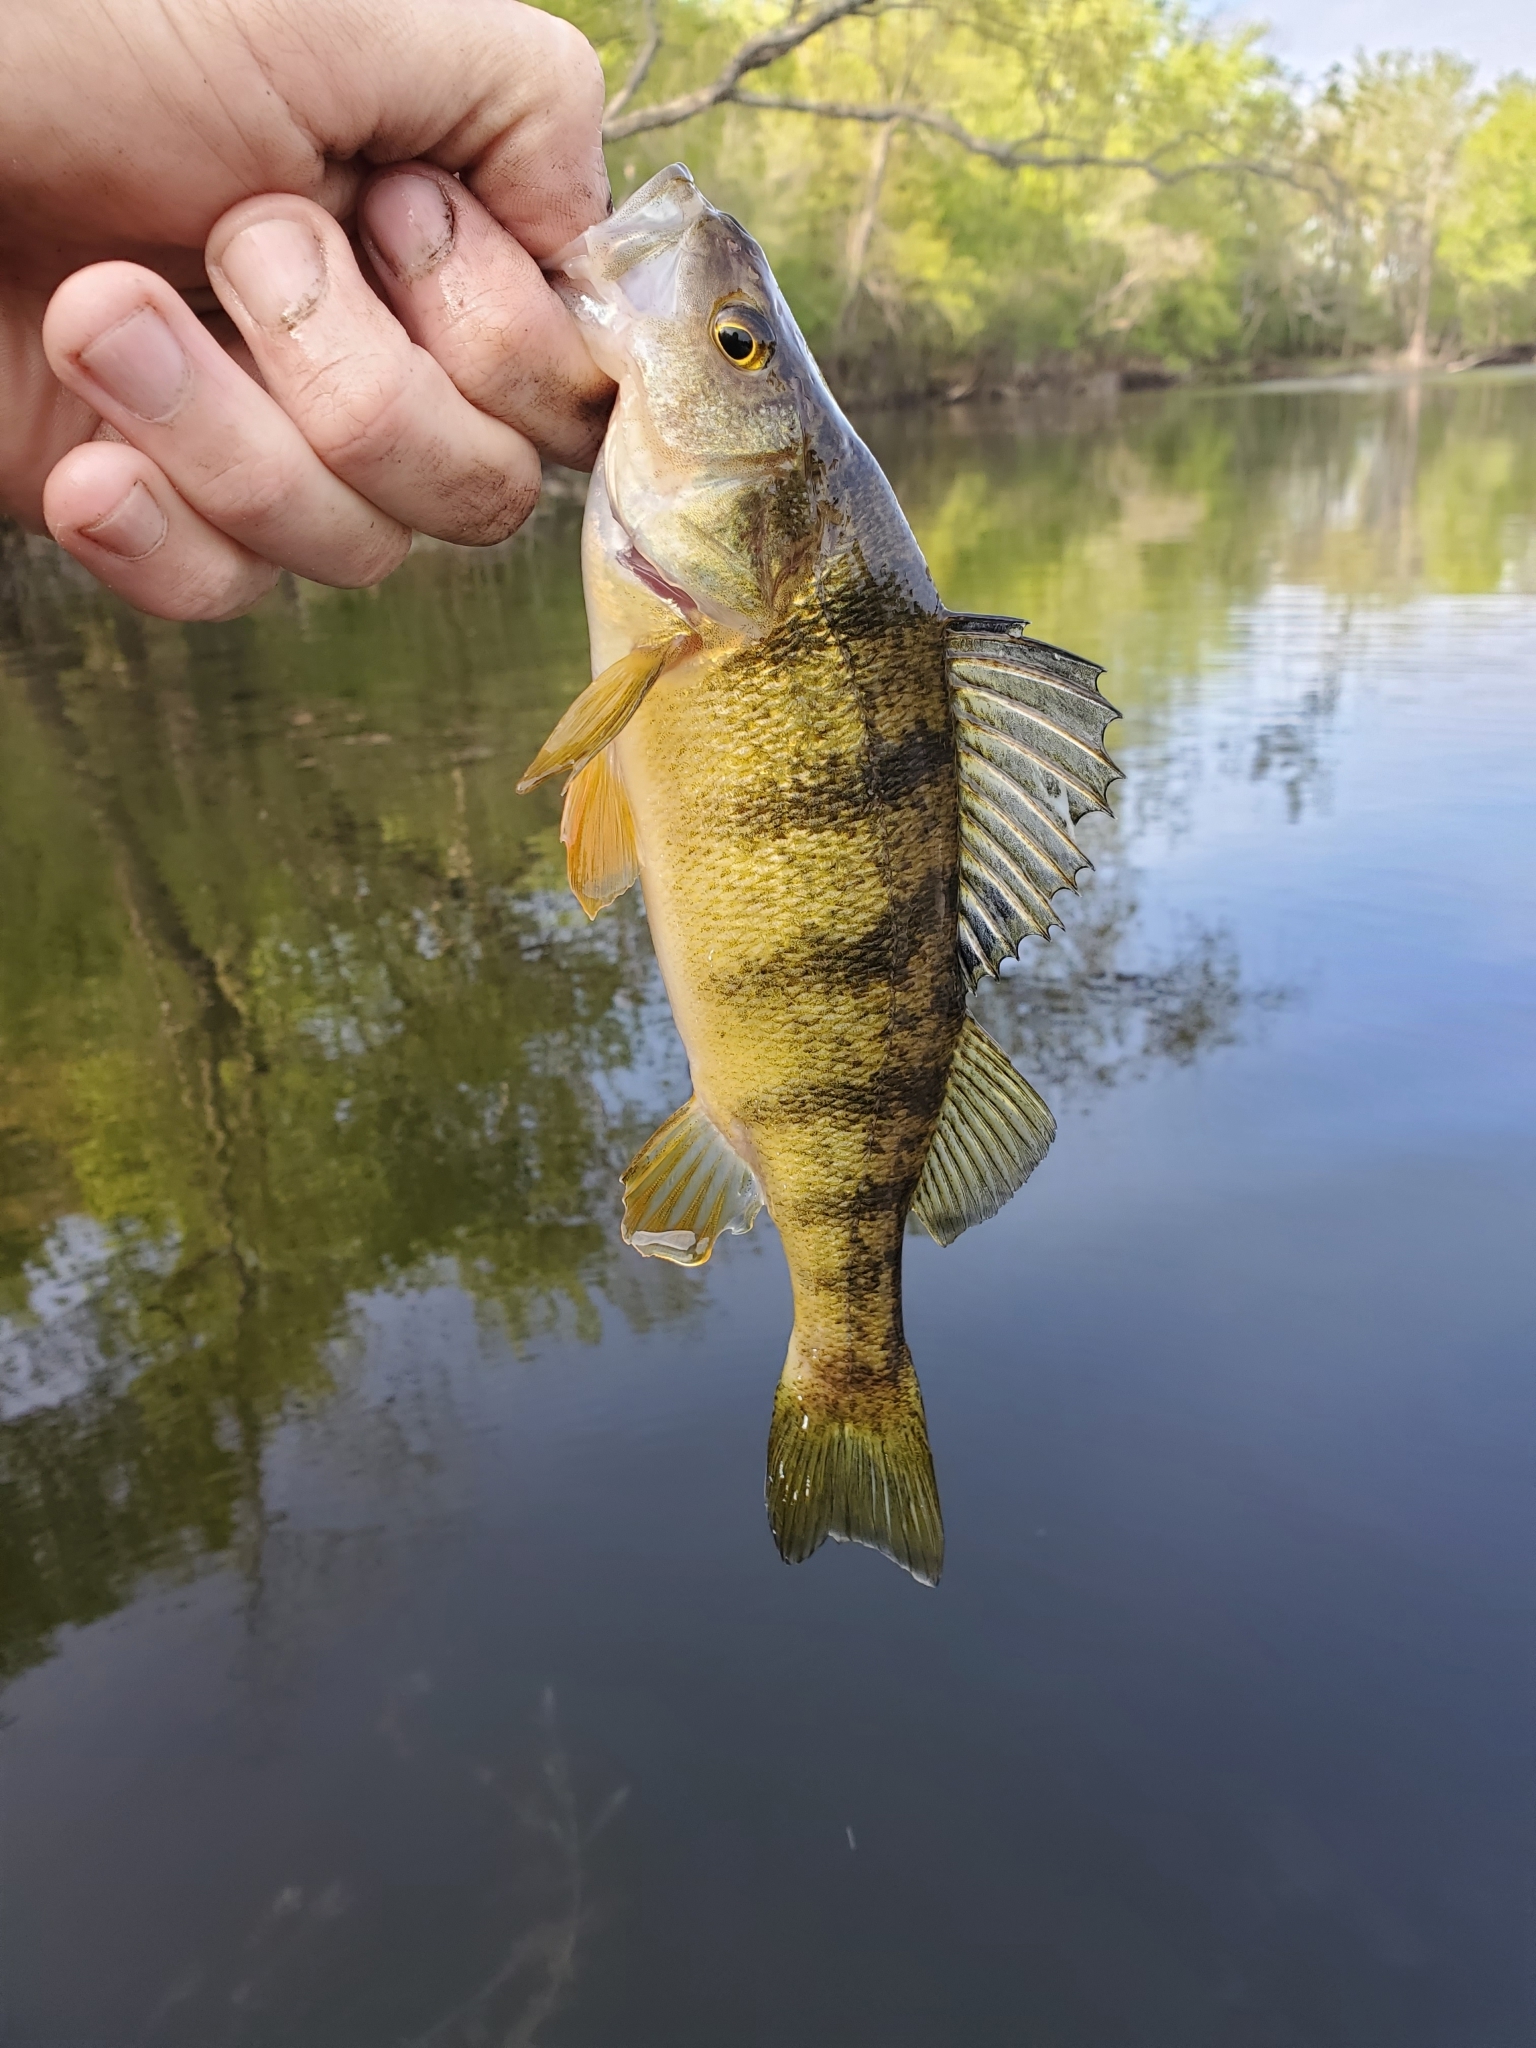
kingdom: Animalia
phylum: Chordata
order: Perciformes
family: Percidae
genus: Perca
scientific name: Perca flavescens
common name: Yellow perch
